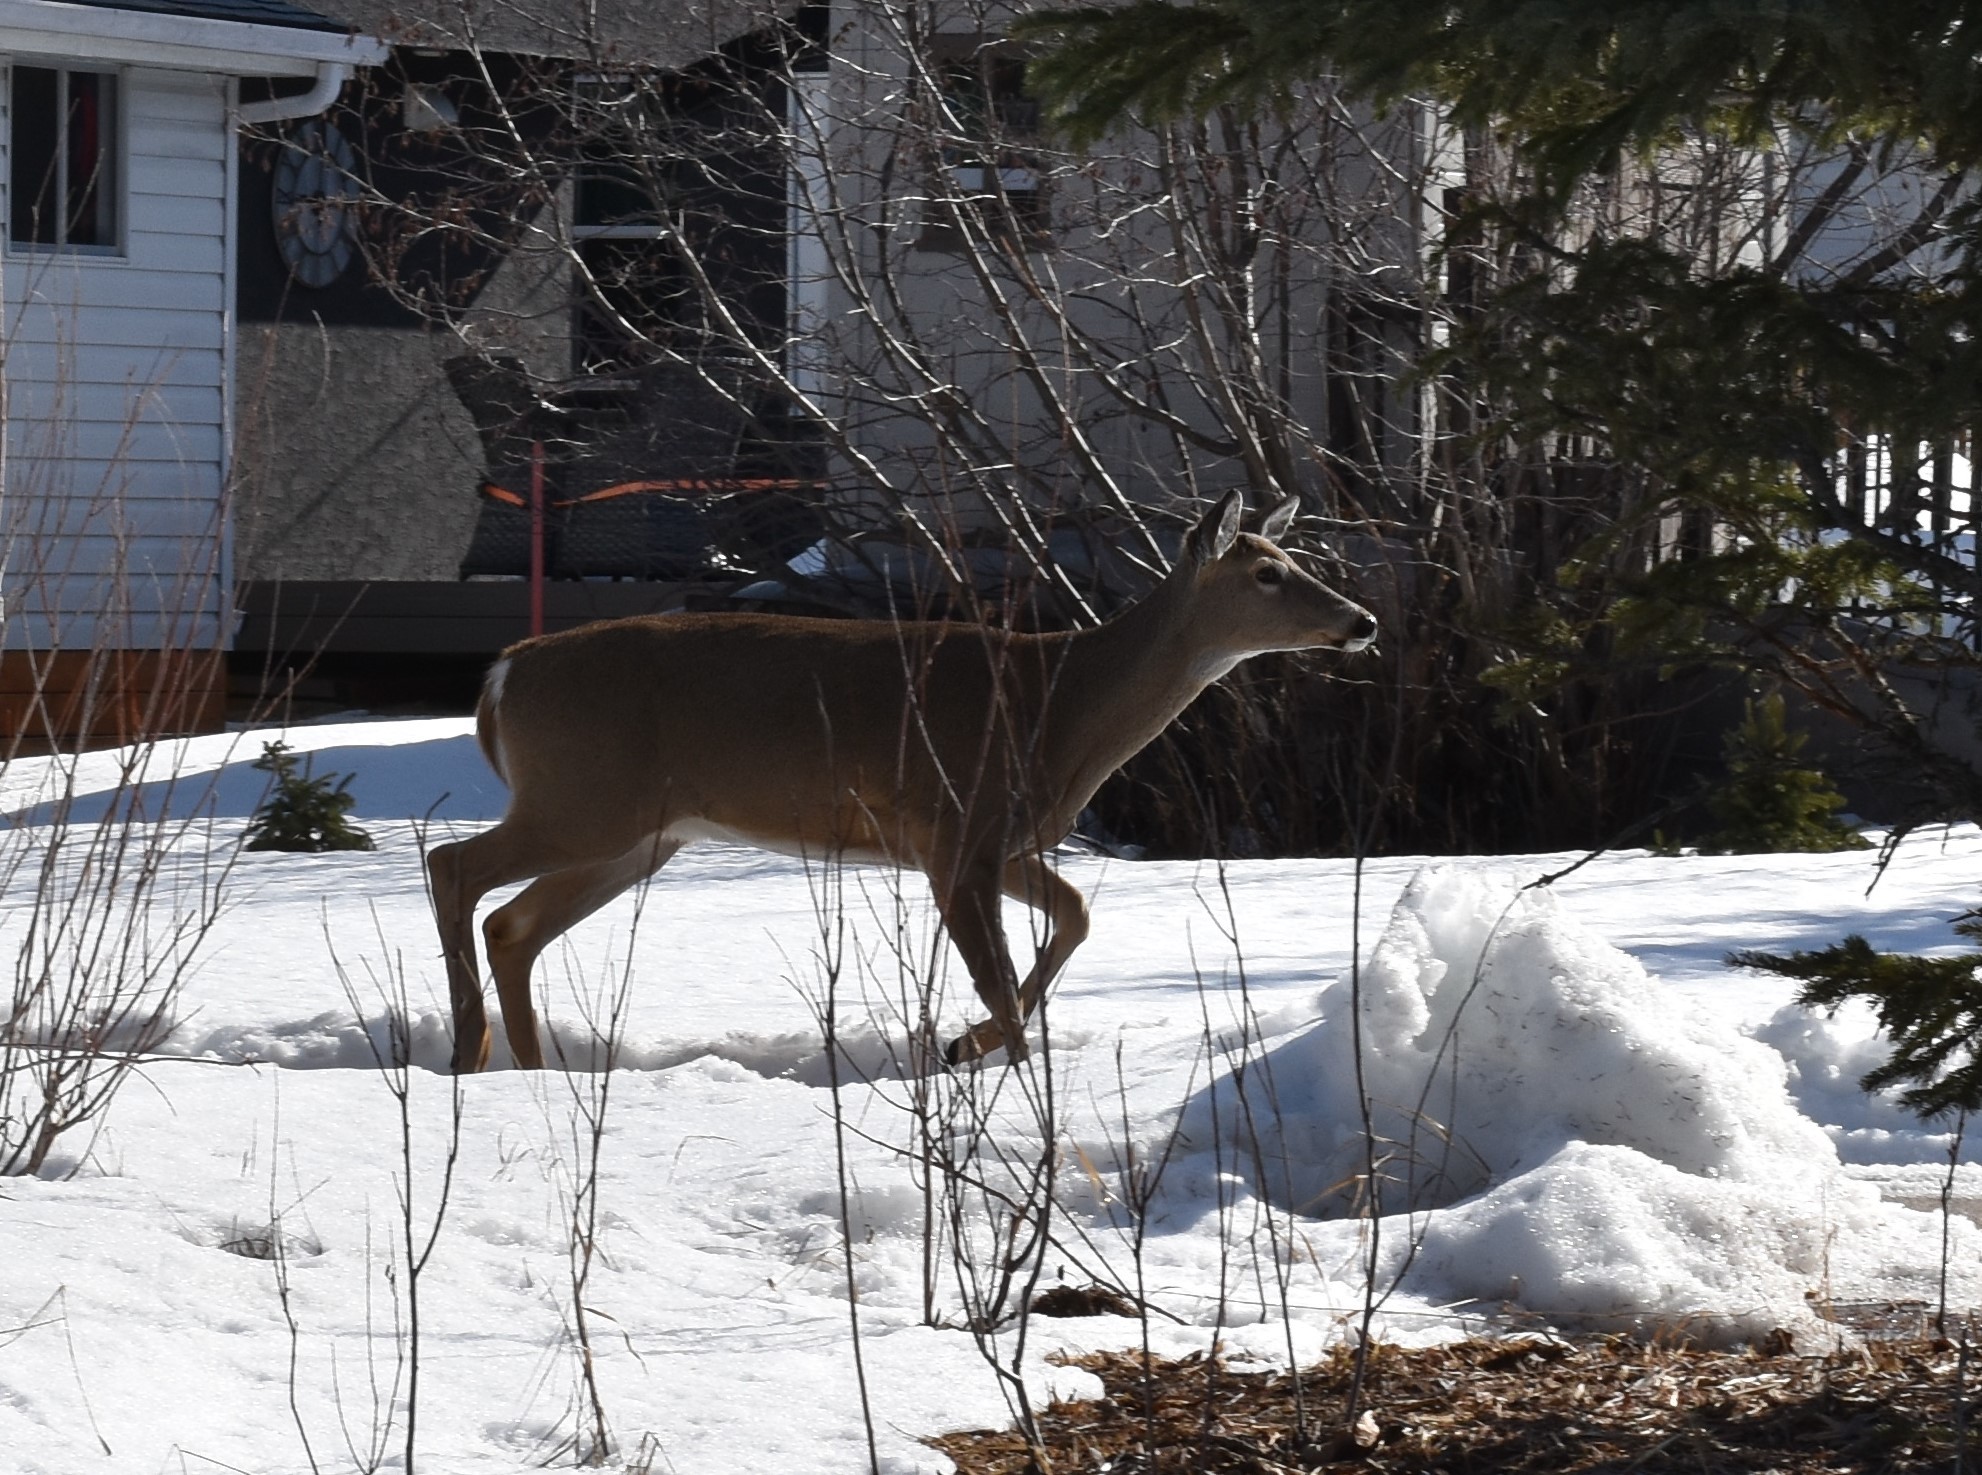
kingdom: Animalia
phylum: Chordata
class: Mammalia
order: Artiodactyla
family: Cervidae
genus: Odocoileus
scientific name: Odocoileus virginianus
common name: White-tailed deer
